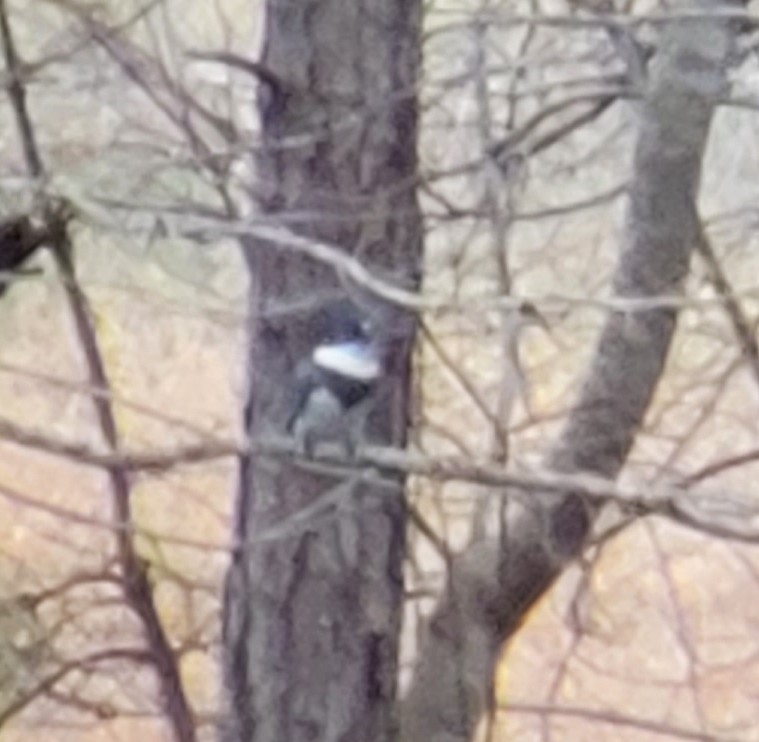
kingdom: Animalia
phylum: Chordata
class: Aves
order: Coraciiformes
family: Alcedinidae
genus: Megaceryle
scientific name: Megaceryle alcyon
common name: Belted kingfisher
